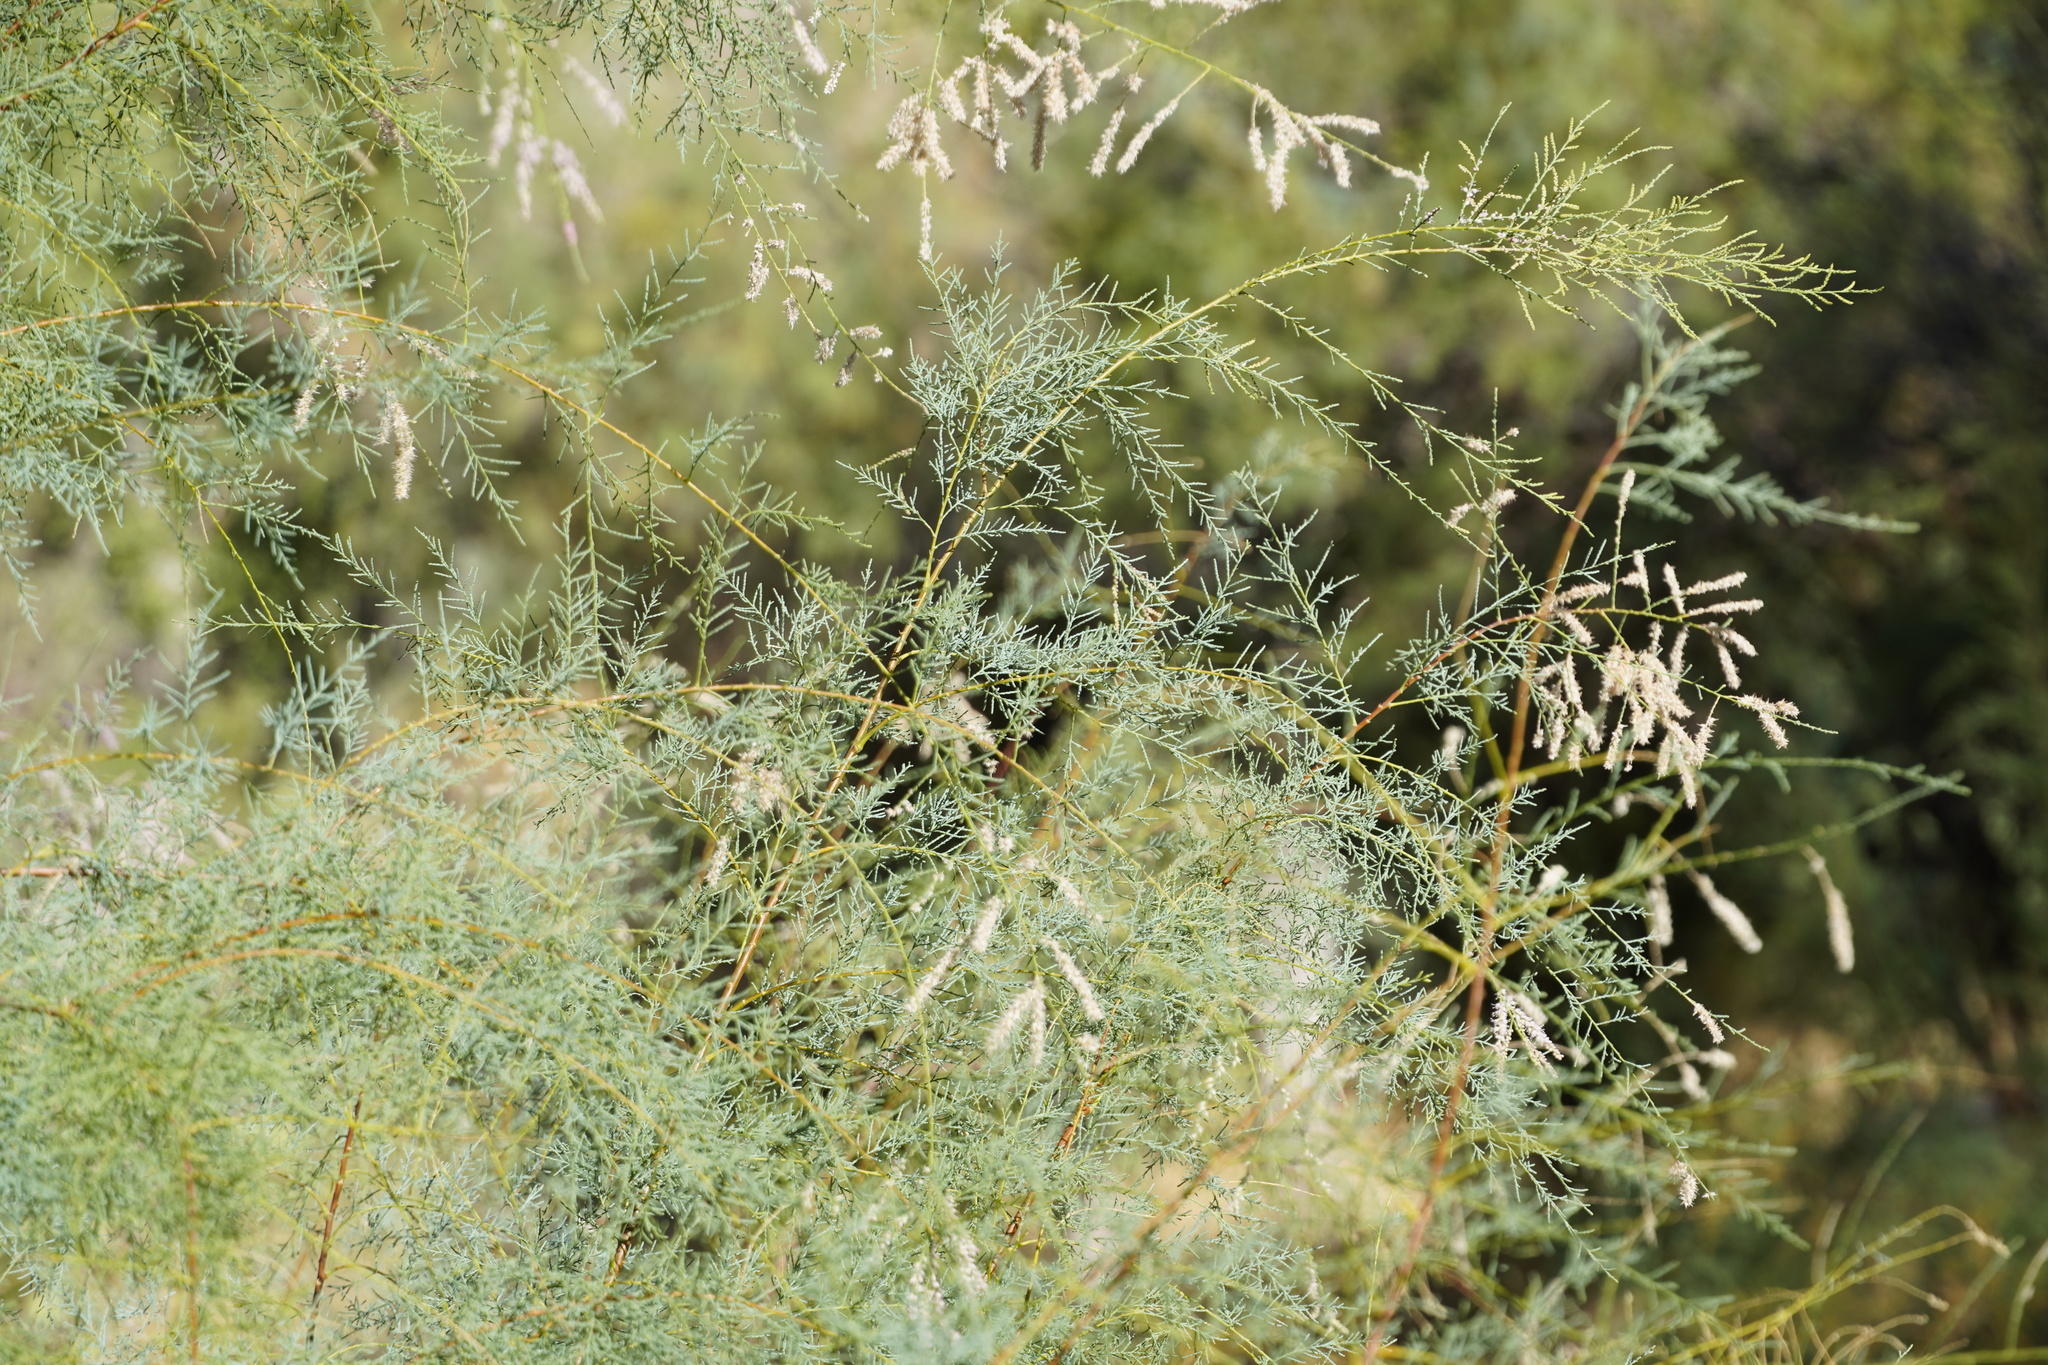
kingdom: Plantae
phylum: Tracheophyta
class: Magnoliopsida
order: Caryophyllales
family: Tamaricaceae
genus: Tamarix
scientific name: Tamarix
